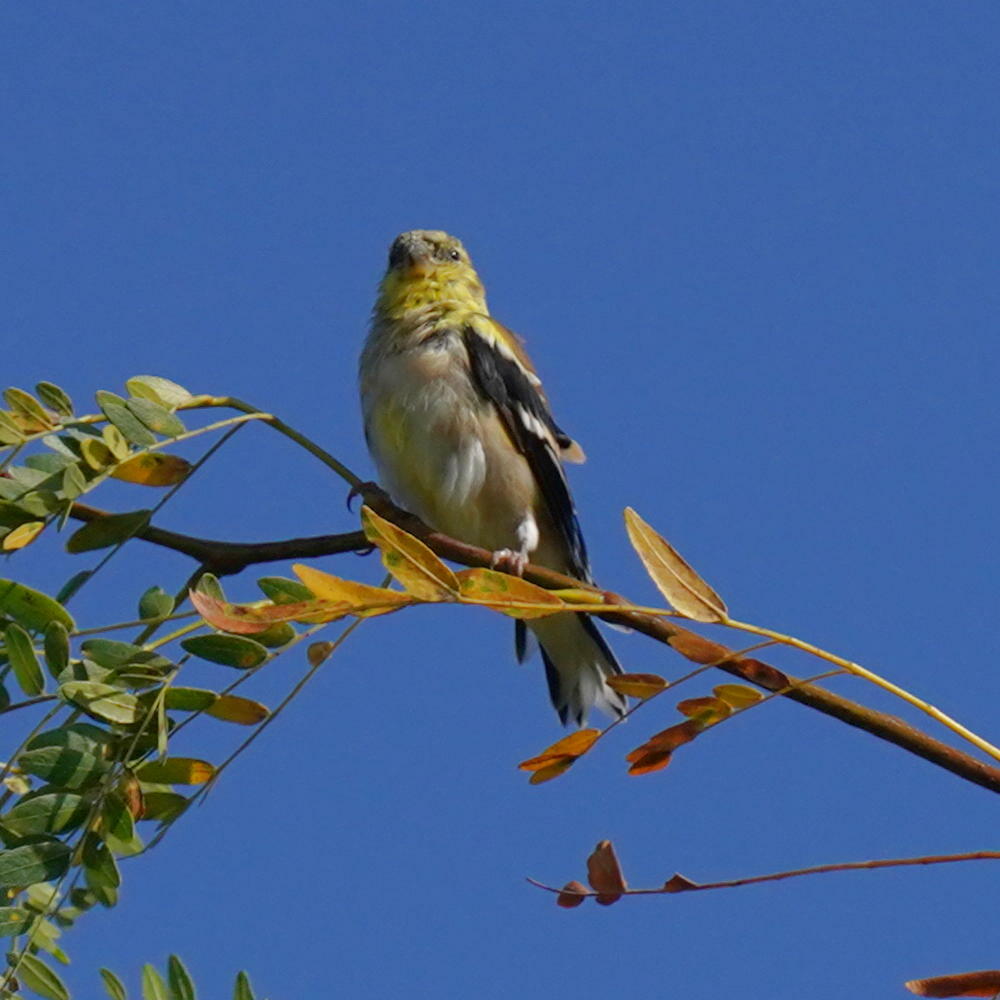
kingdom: Animalia
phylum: Chordata
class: Aves
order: Passeriformes
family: Fringillidae
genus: Spinus
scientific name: Spinus tristis
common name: American goldfinch
